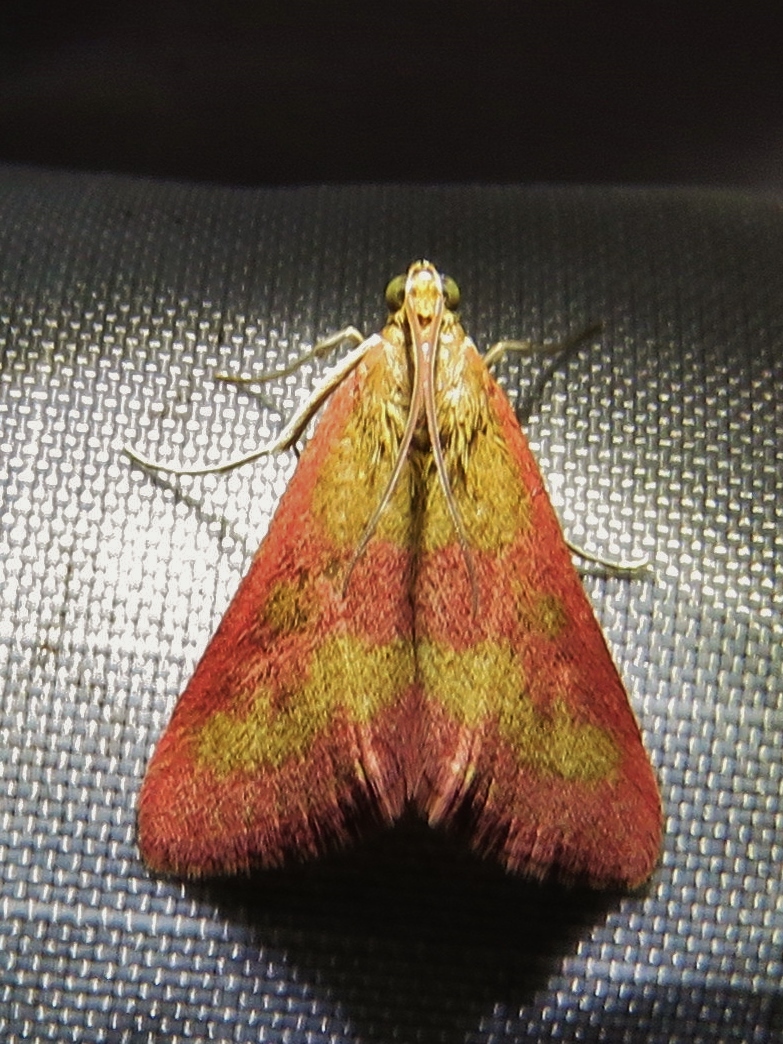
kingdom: Animalia
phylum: Arthropoda
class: Insecta
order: Lepidoptera
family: Crambidae
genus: Pyrausta
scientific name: Pyrausta laticlavia
